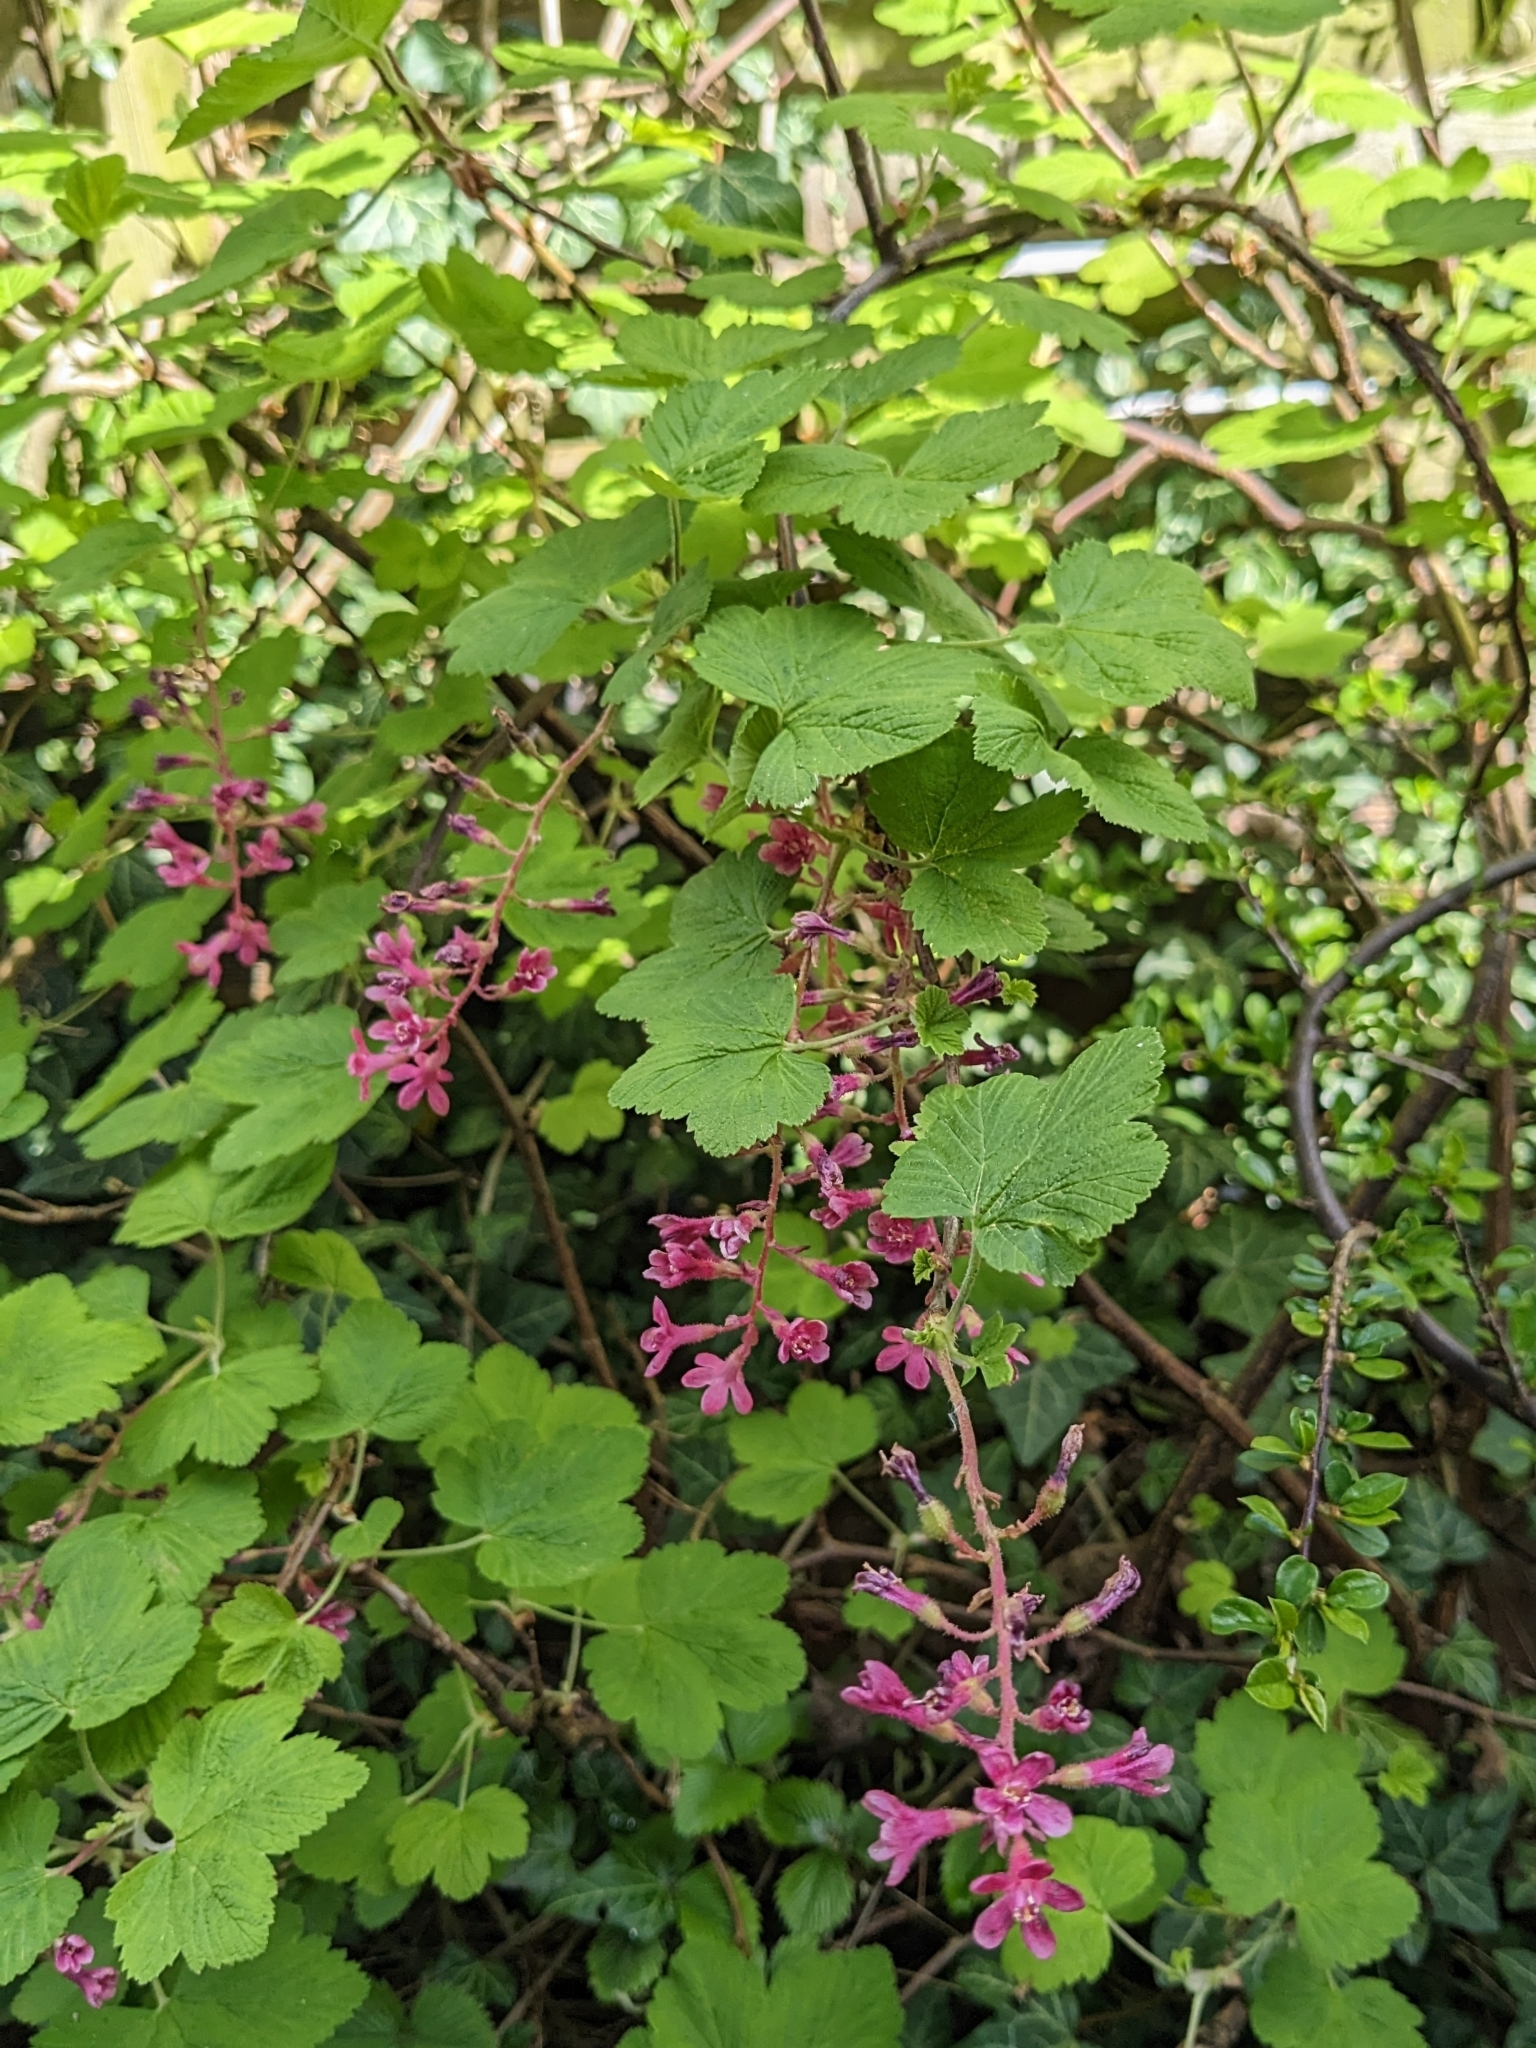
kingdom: Plantae
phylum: Tracheophyta
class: Magnoliopsida
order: Saxifragales
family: Grossulariaceae
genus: Ribes
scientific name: Ribes sanguineum
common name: Flowering currant
